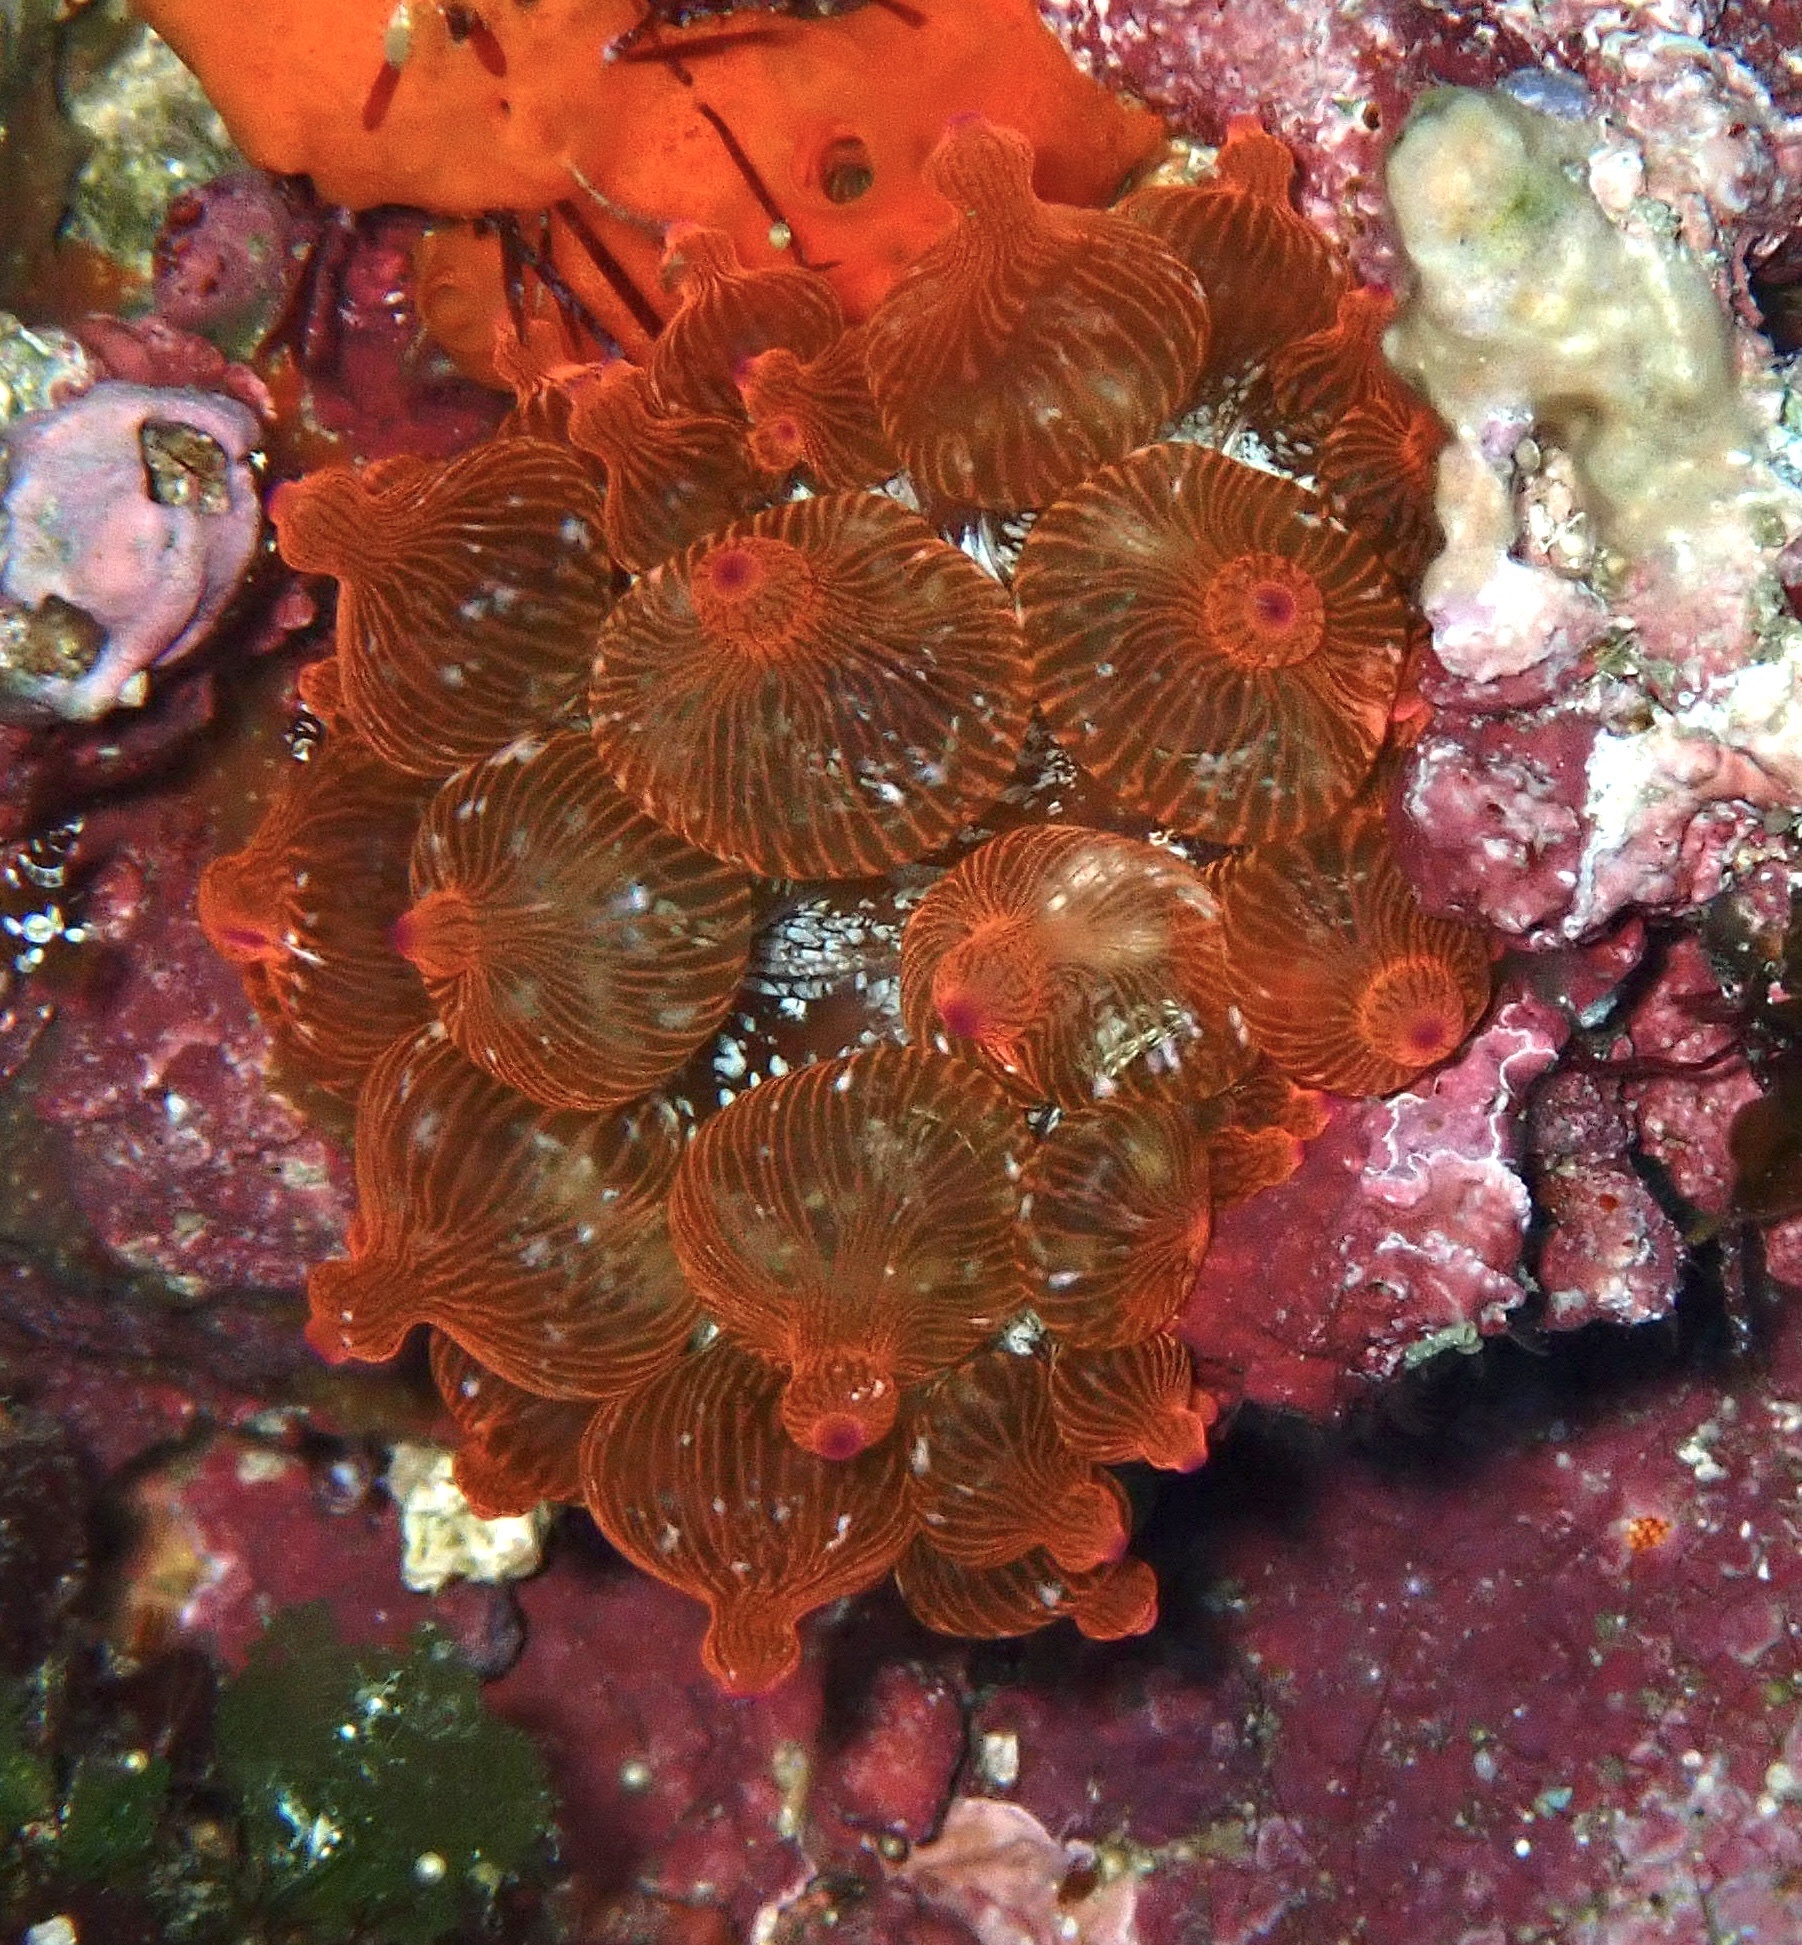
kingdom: Animalia
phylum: Cnidaria
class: Anthozoa
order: Actiniaria
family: Actiniidae
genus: Entacmaea
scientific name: Entacmaea quadricolor
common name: Bulb tentacle sea anemone
